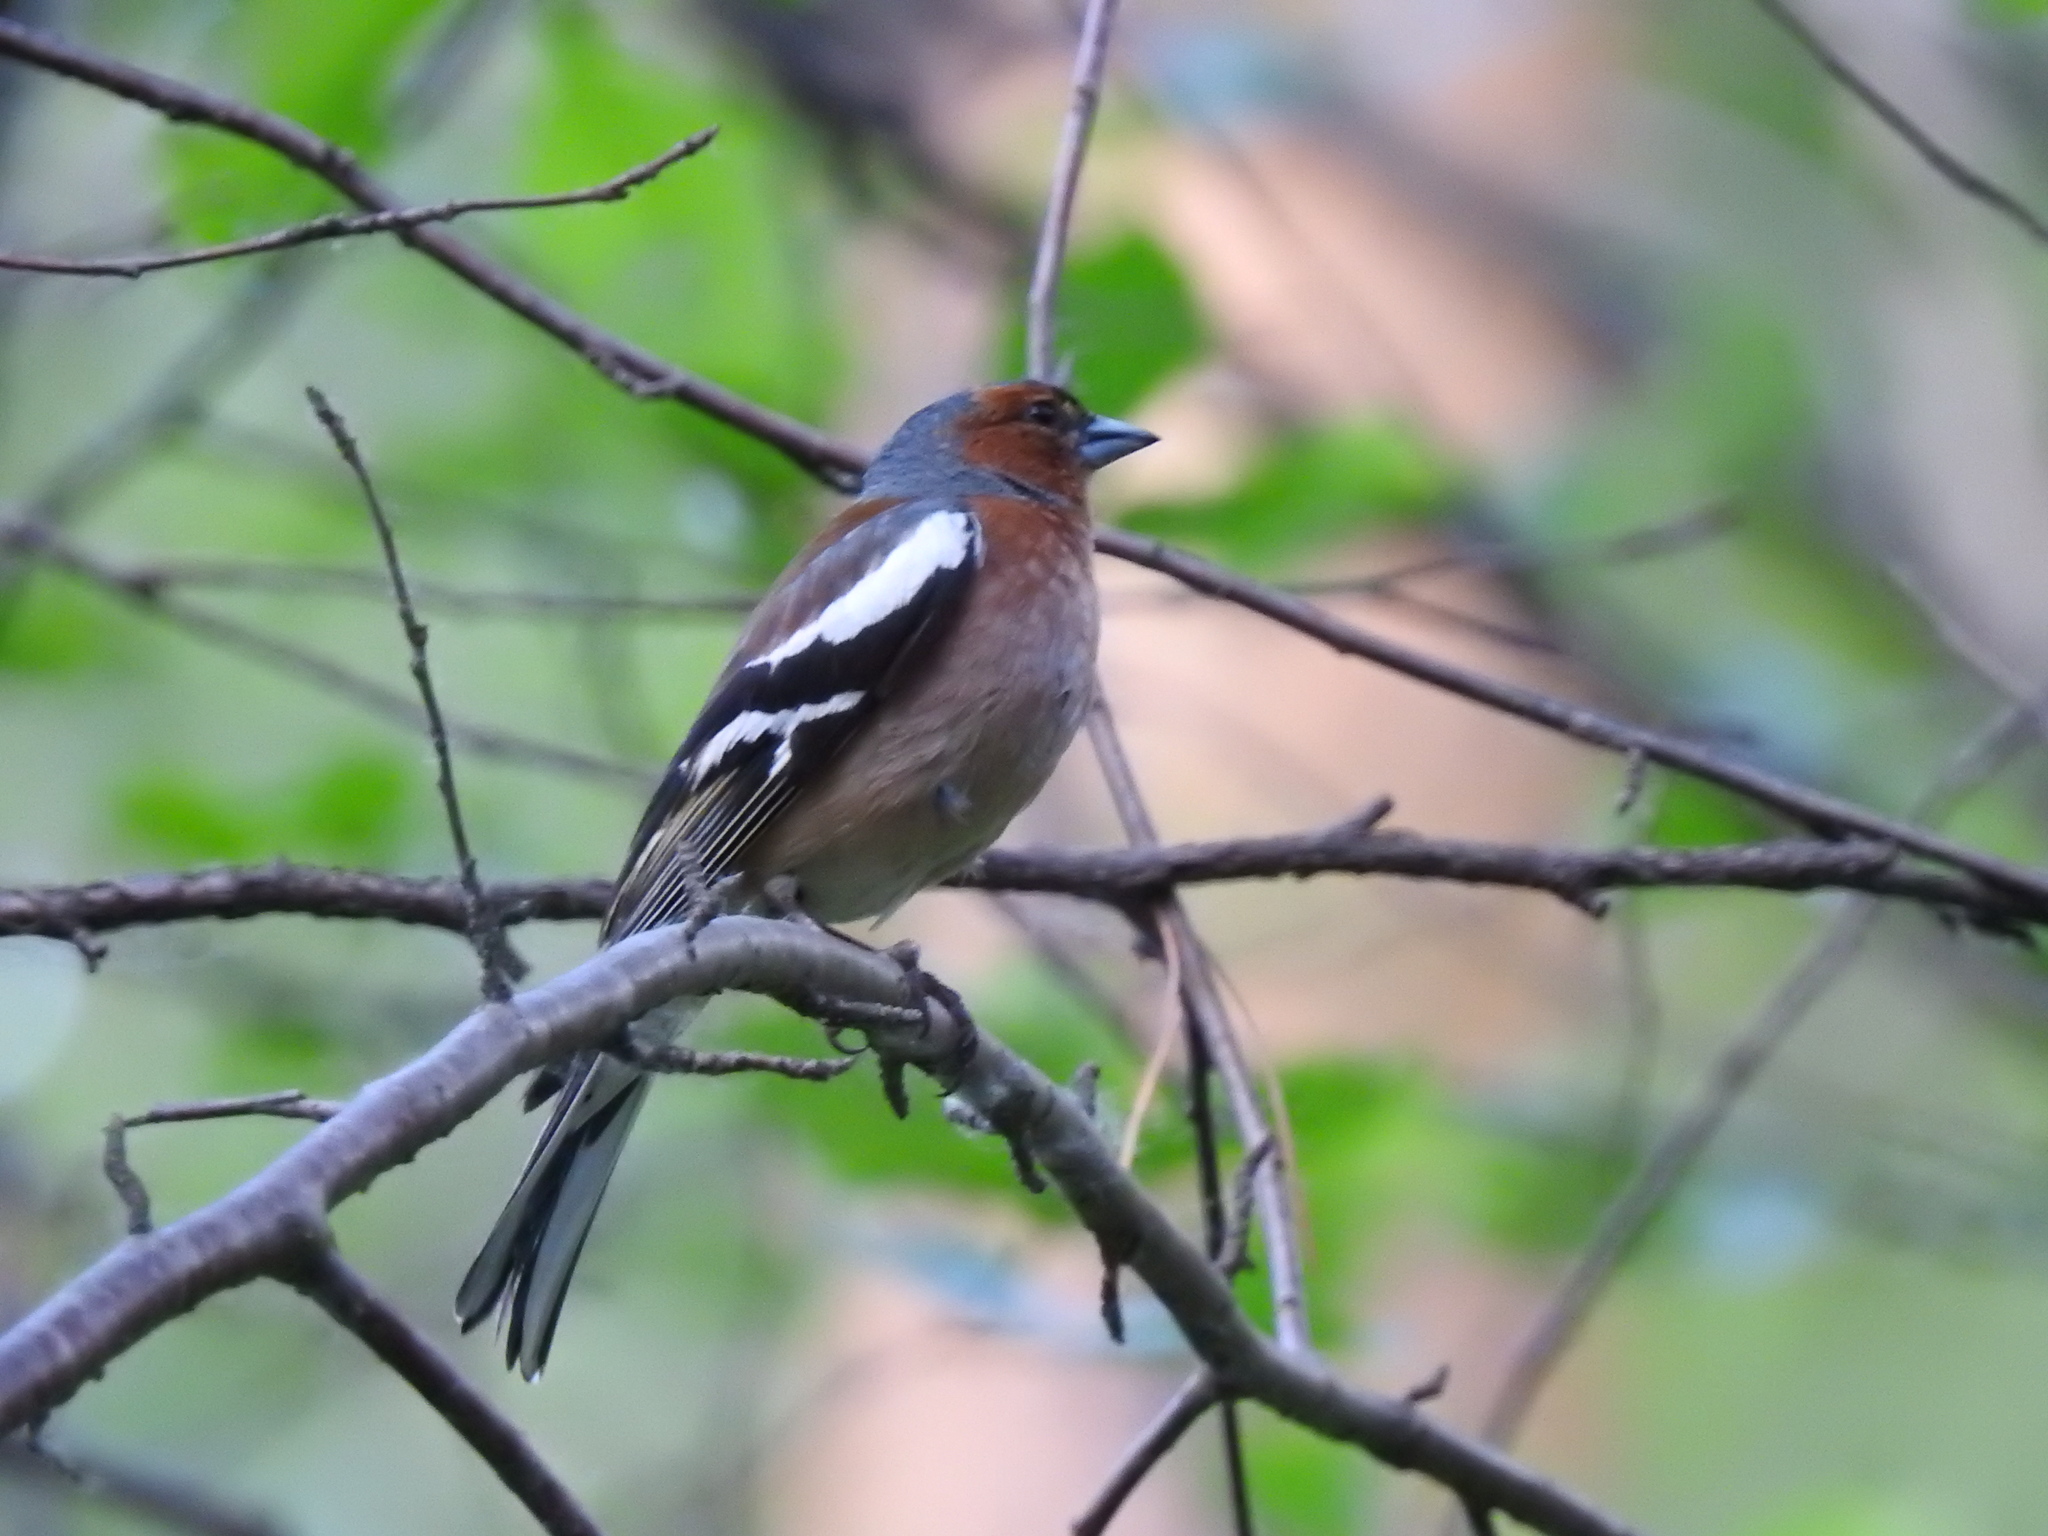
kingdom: Animalia
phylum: Chordata
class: Aves
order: Passeriformes
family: Fringillidae
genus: Fringilla
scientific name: Fringilla coelebs
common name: Common chaffinch
